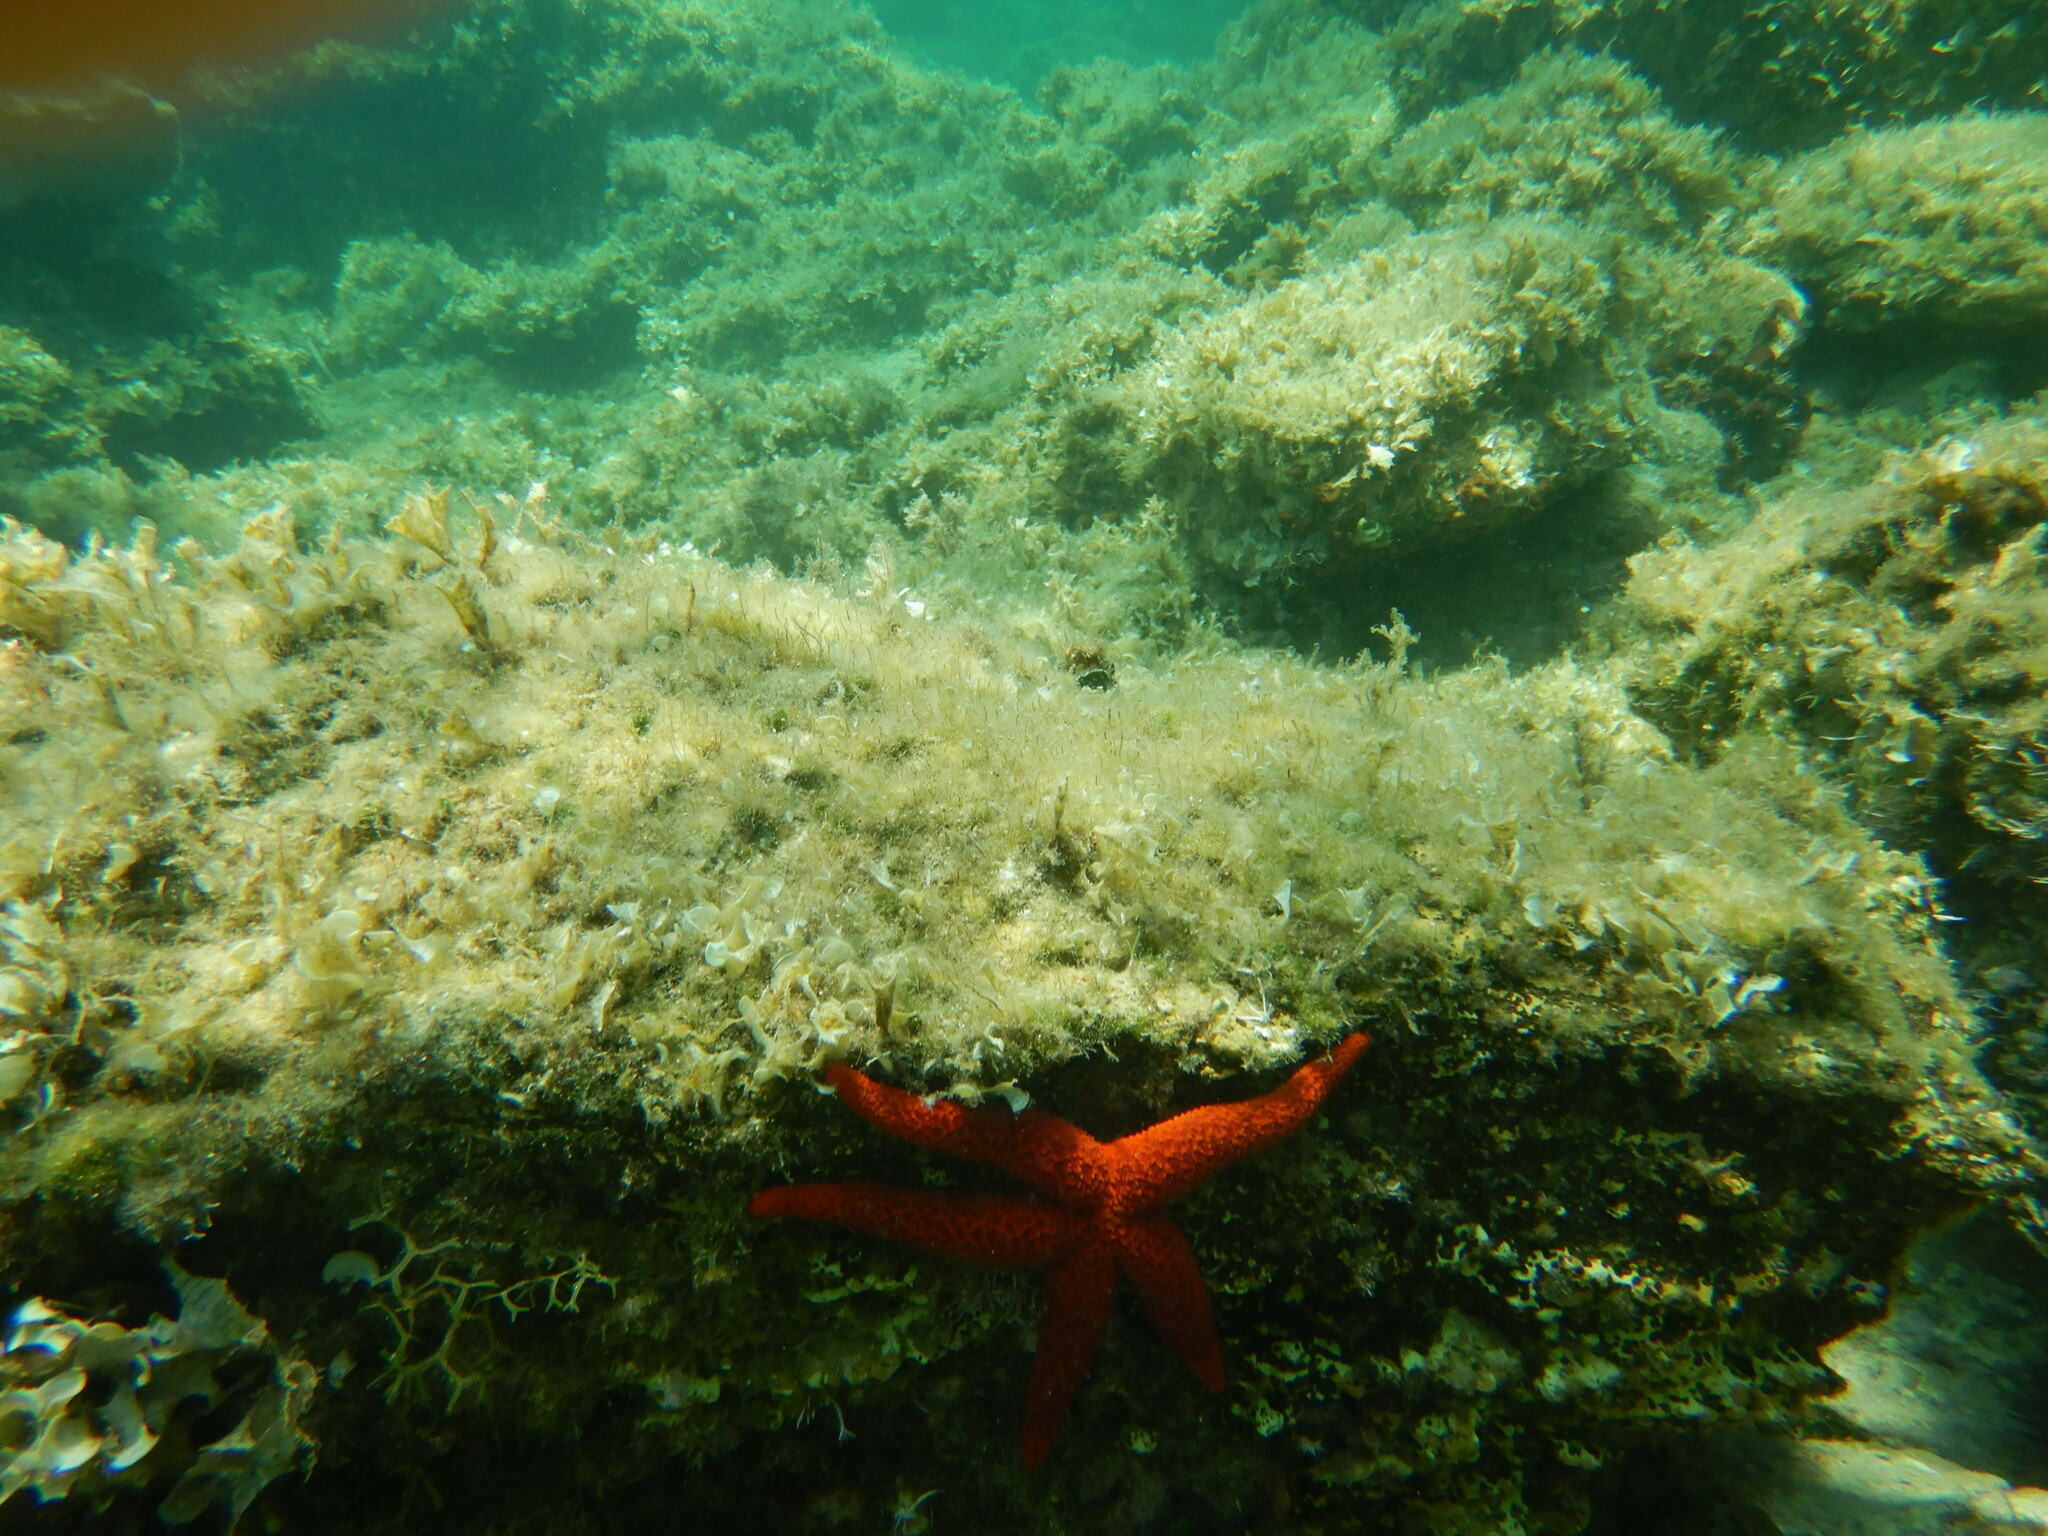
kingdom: Animalia
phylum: Echinodermata
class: Asteroidea
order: Spinulosida
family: Echinasteridae
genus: Echinaster
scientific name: Echinaster sepositus
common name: Red starfish
